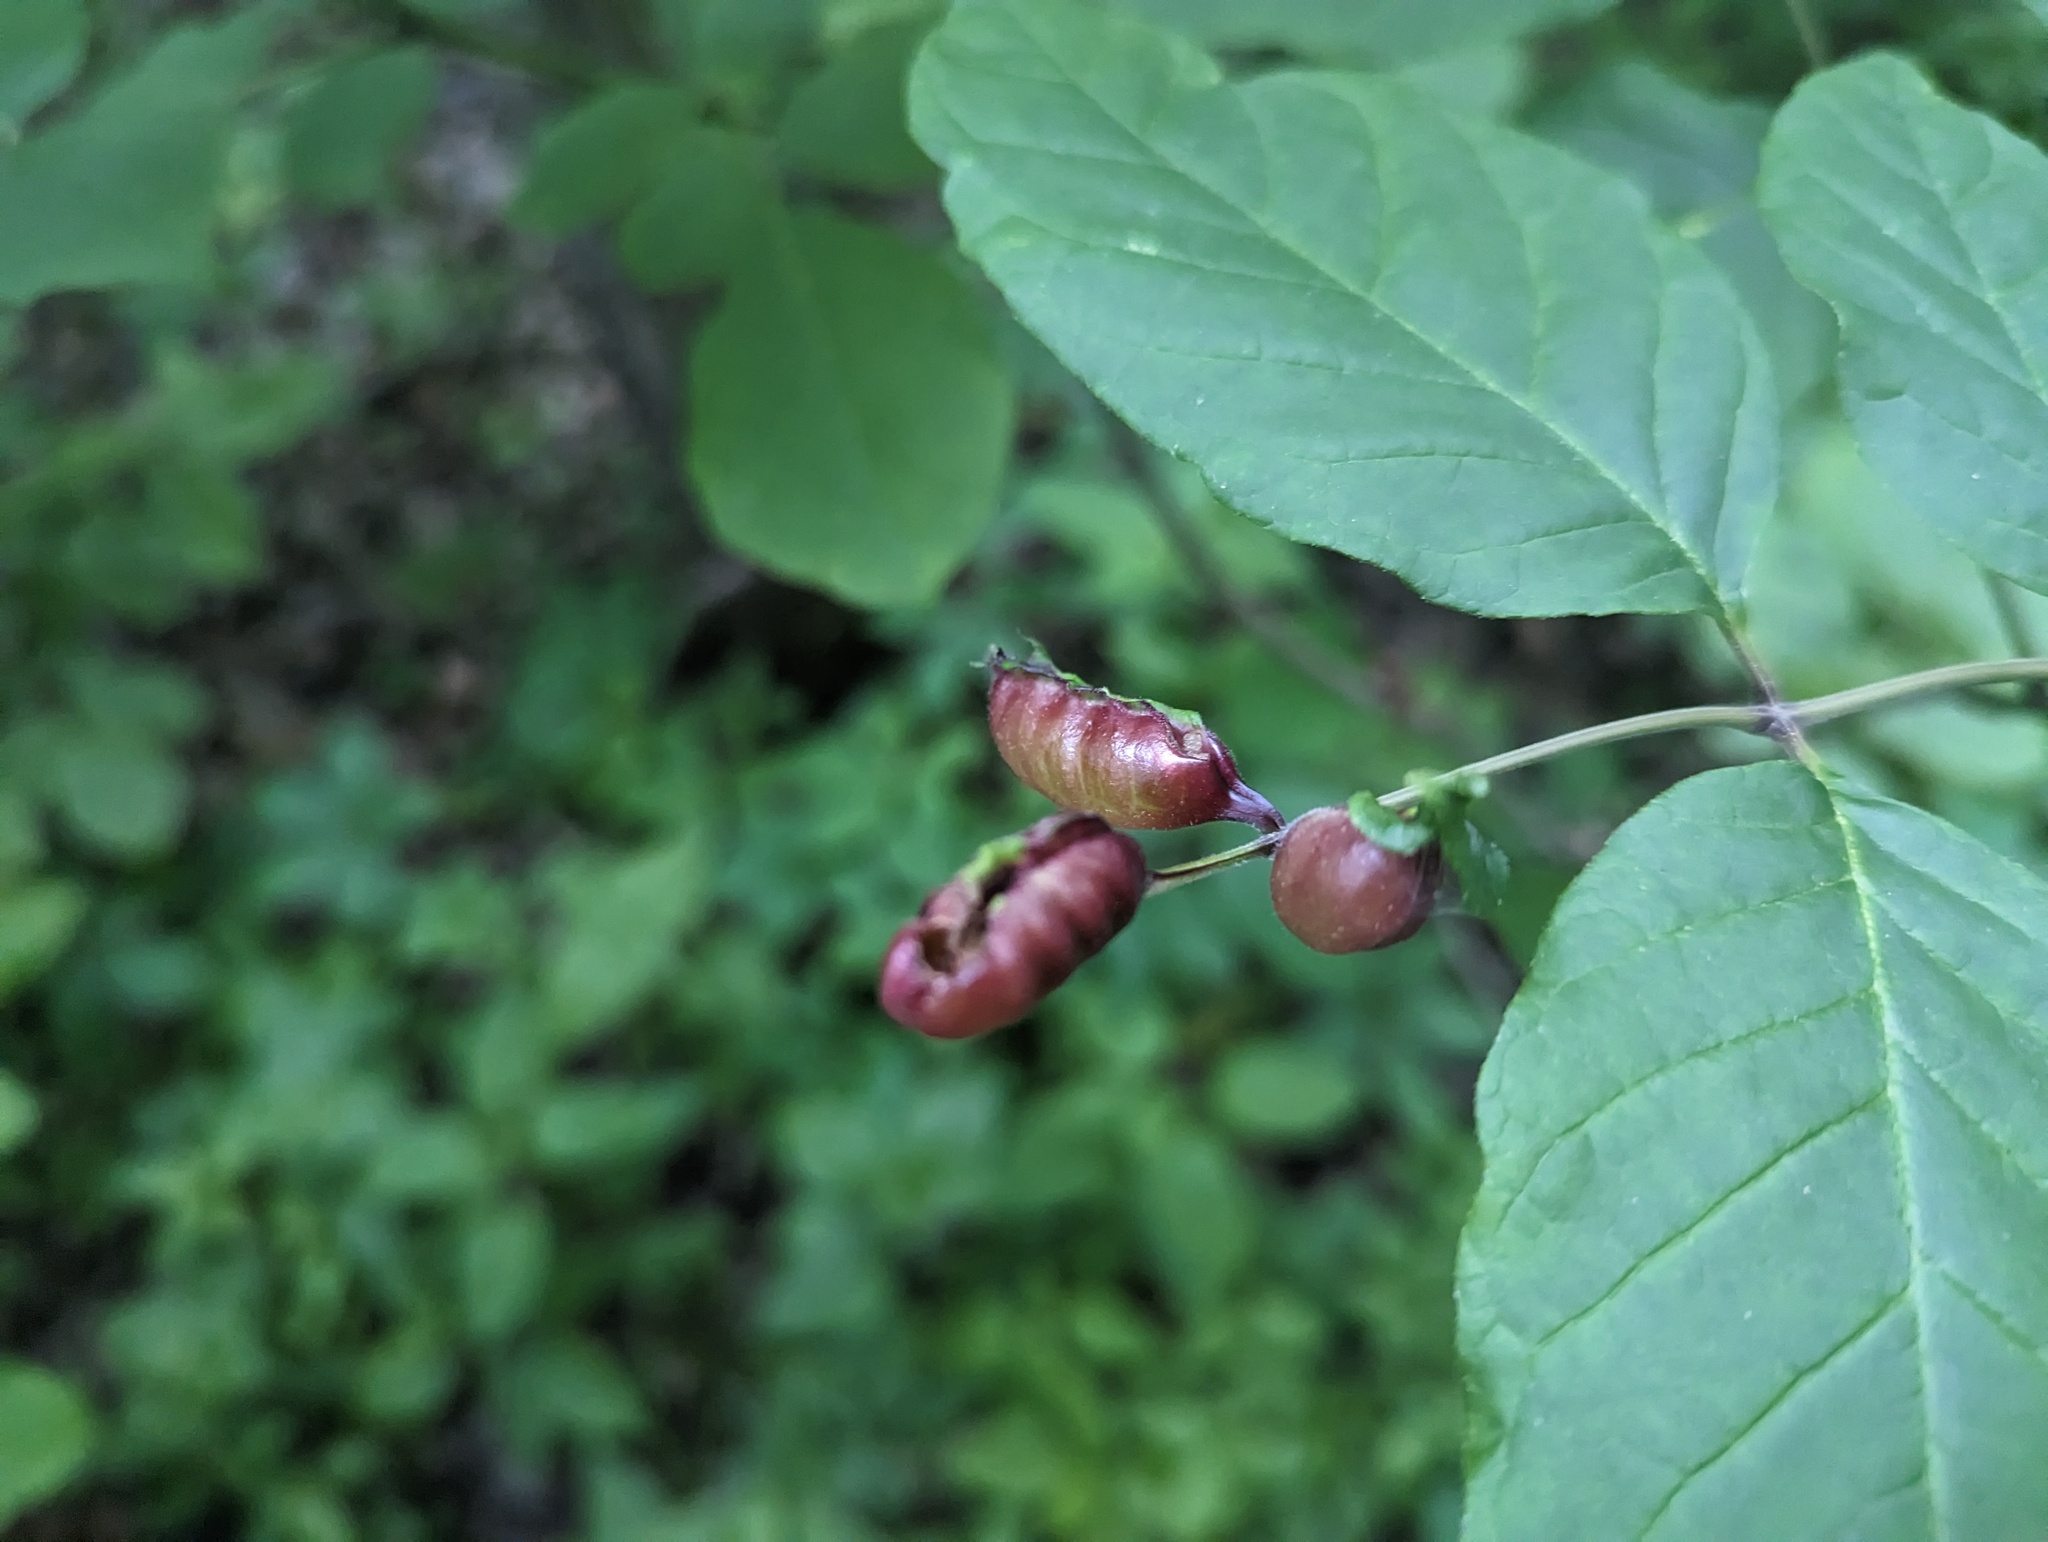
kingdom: Animalia
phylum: Arthropoda
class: Insecta
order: Diptera
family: Cecidomyiidae
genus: Dasineura
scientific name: Dasineura tumidosae
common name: Ash petiole gall midge
